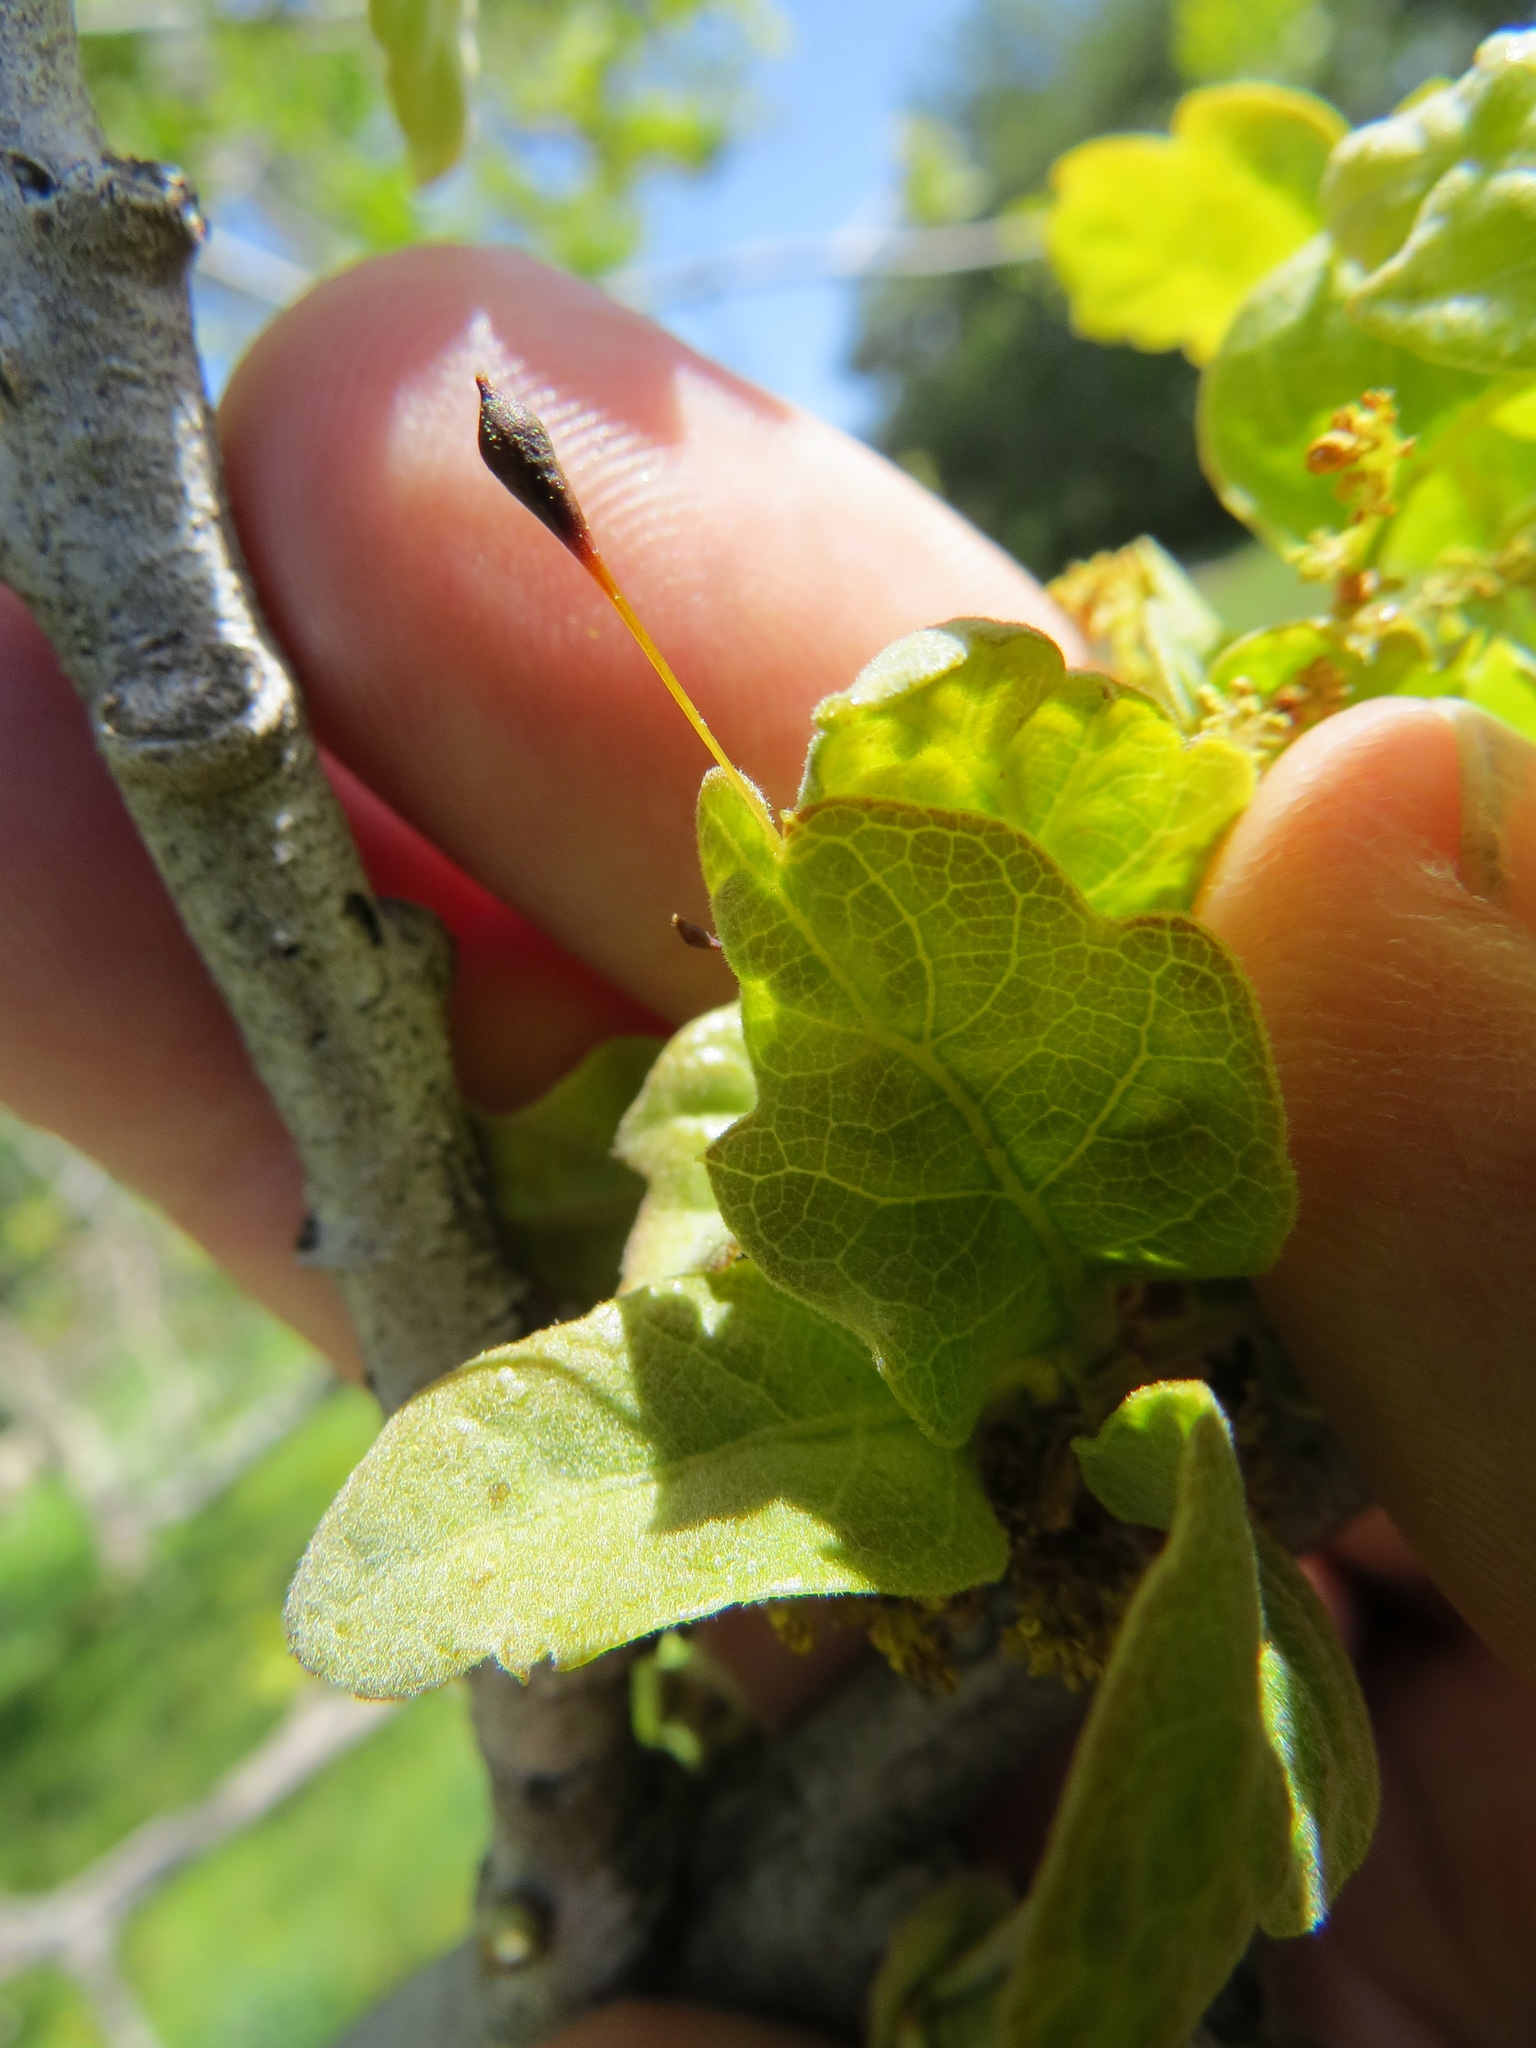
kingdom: Animalia
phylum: Arthropoda
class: Insecta
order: Hymenoptera
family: Cynipidae
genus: Andricus
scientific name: Andricus
